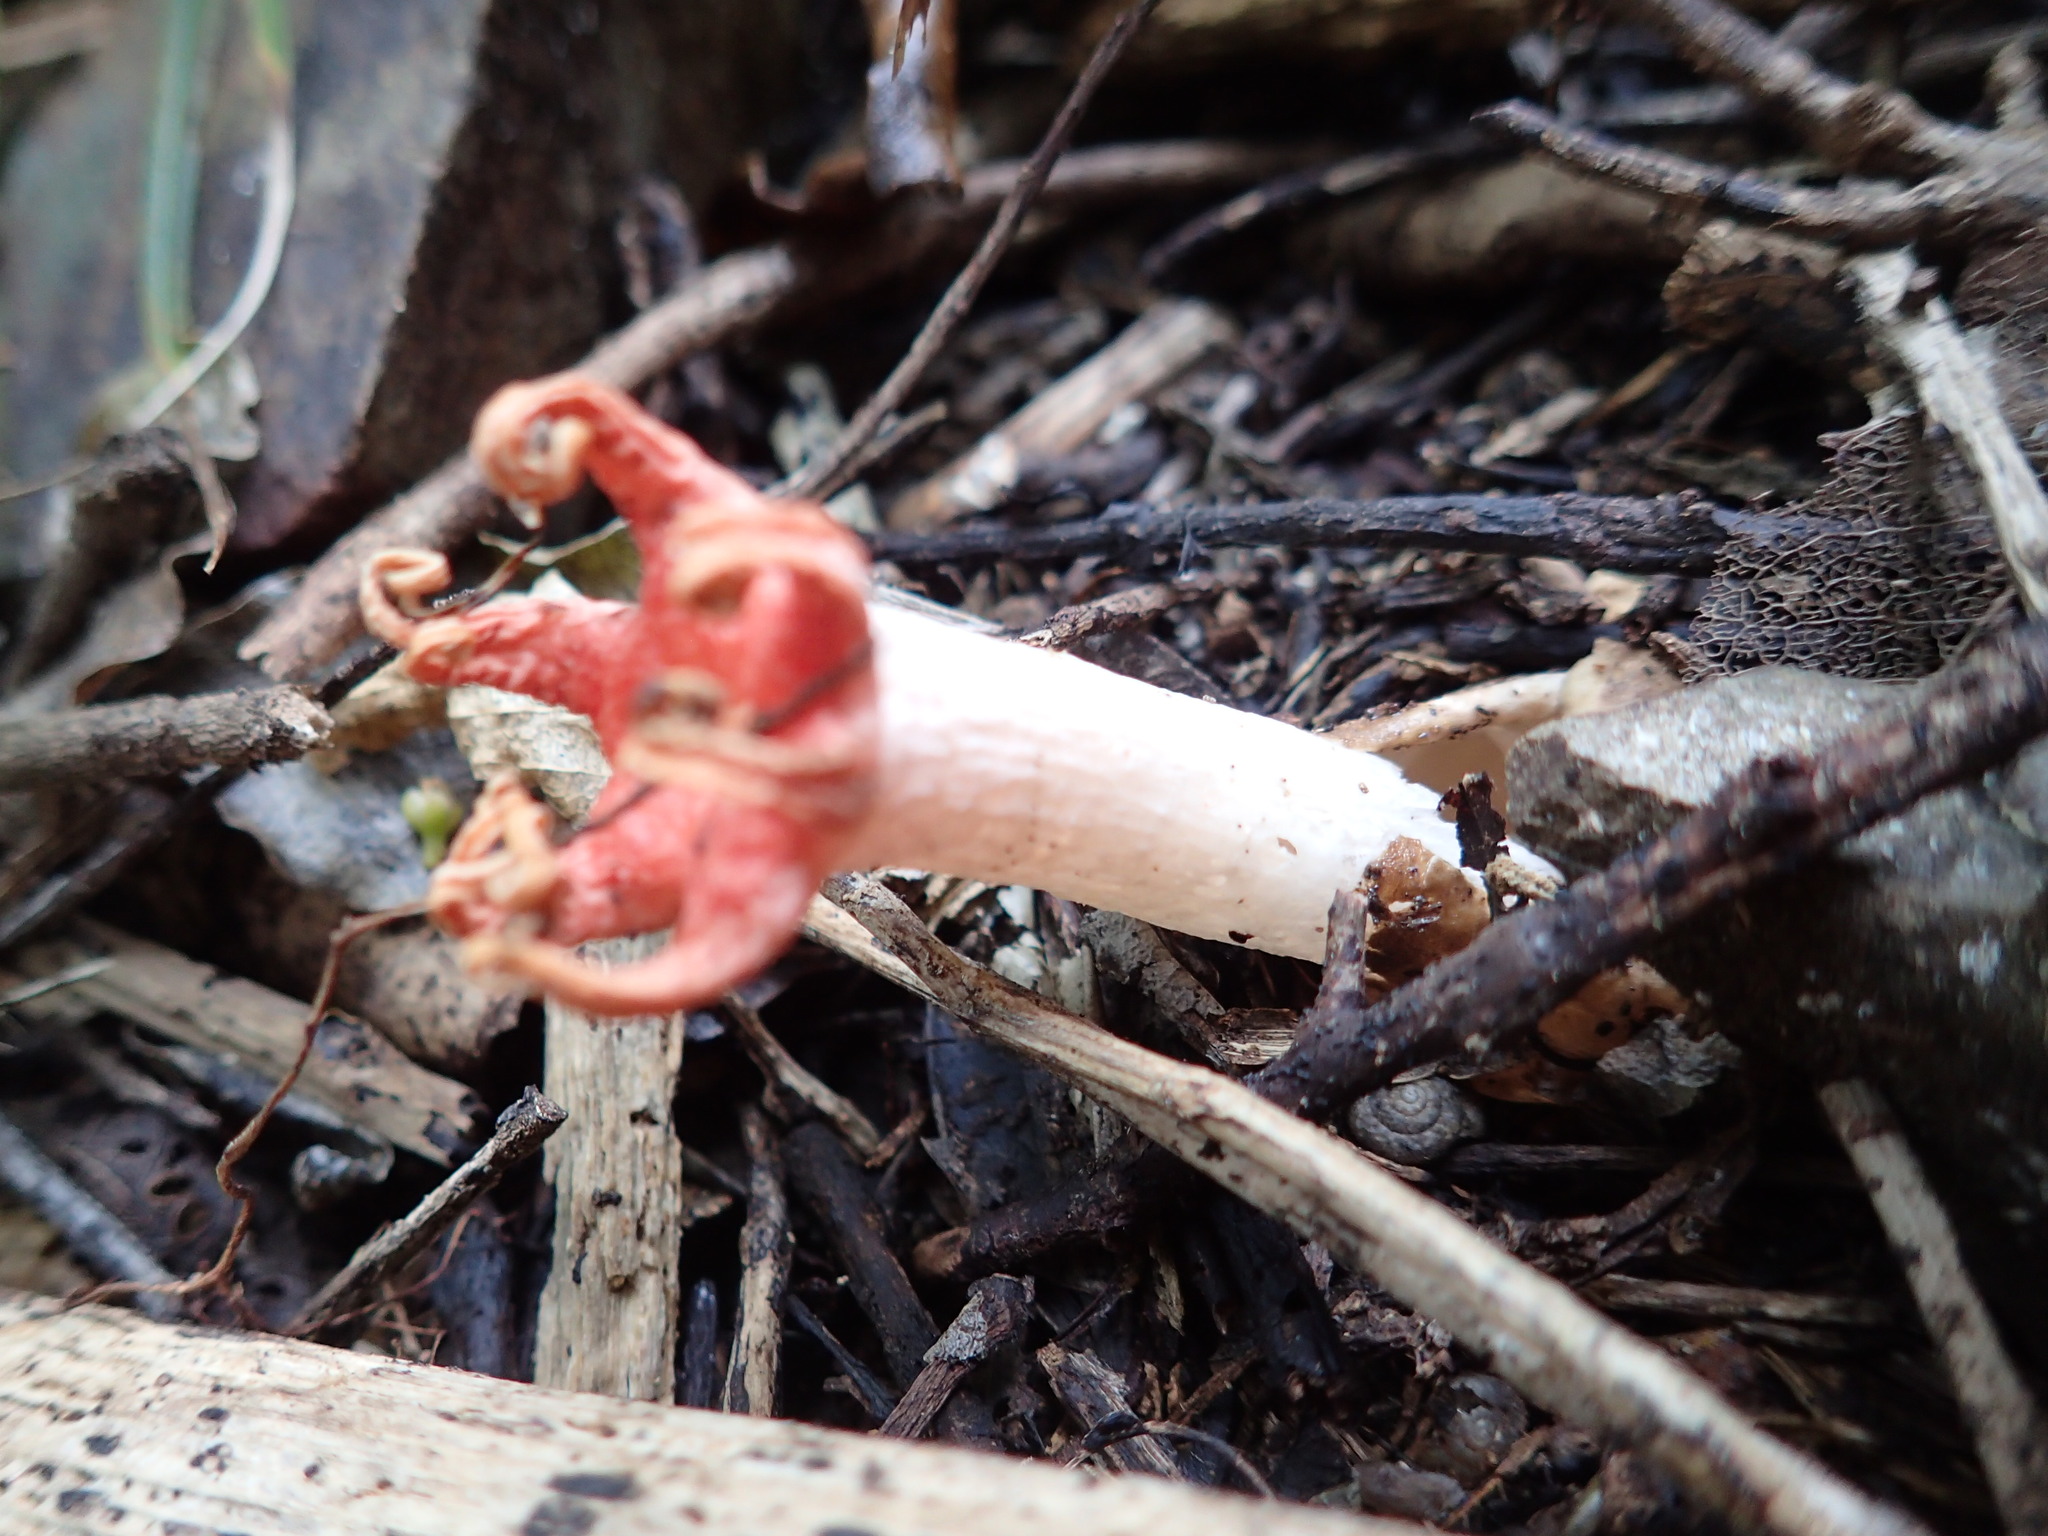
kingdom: Fungi
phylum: Basidiomycota
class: Agaricomycetes
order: Phallales
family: Phallaceae
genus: Aseroe
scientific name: Aseroe rubra
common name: Starfish fungus
